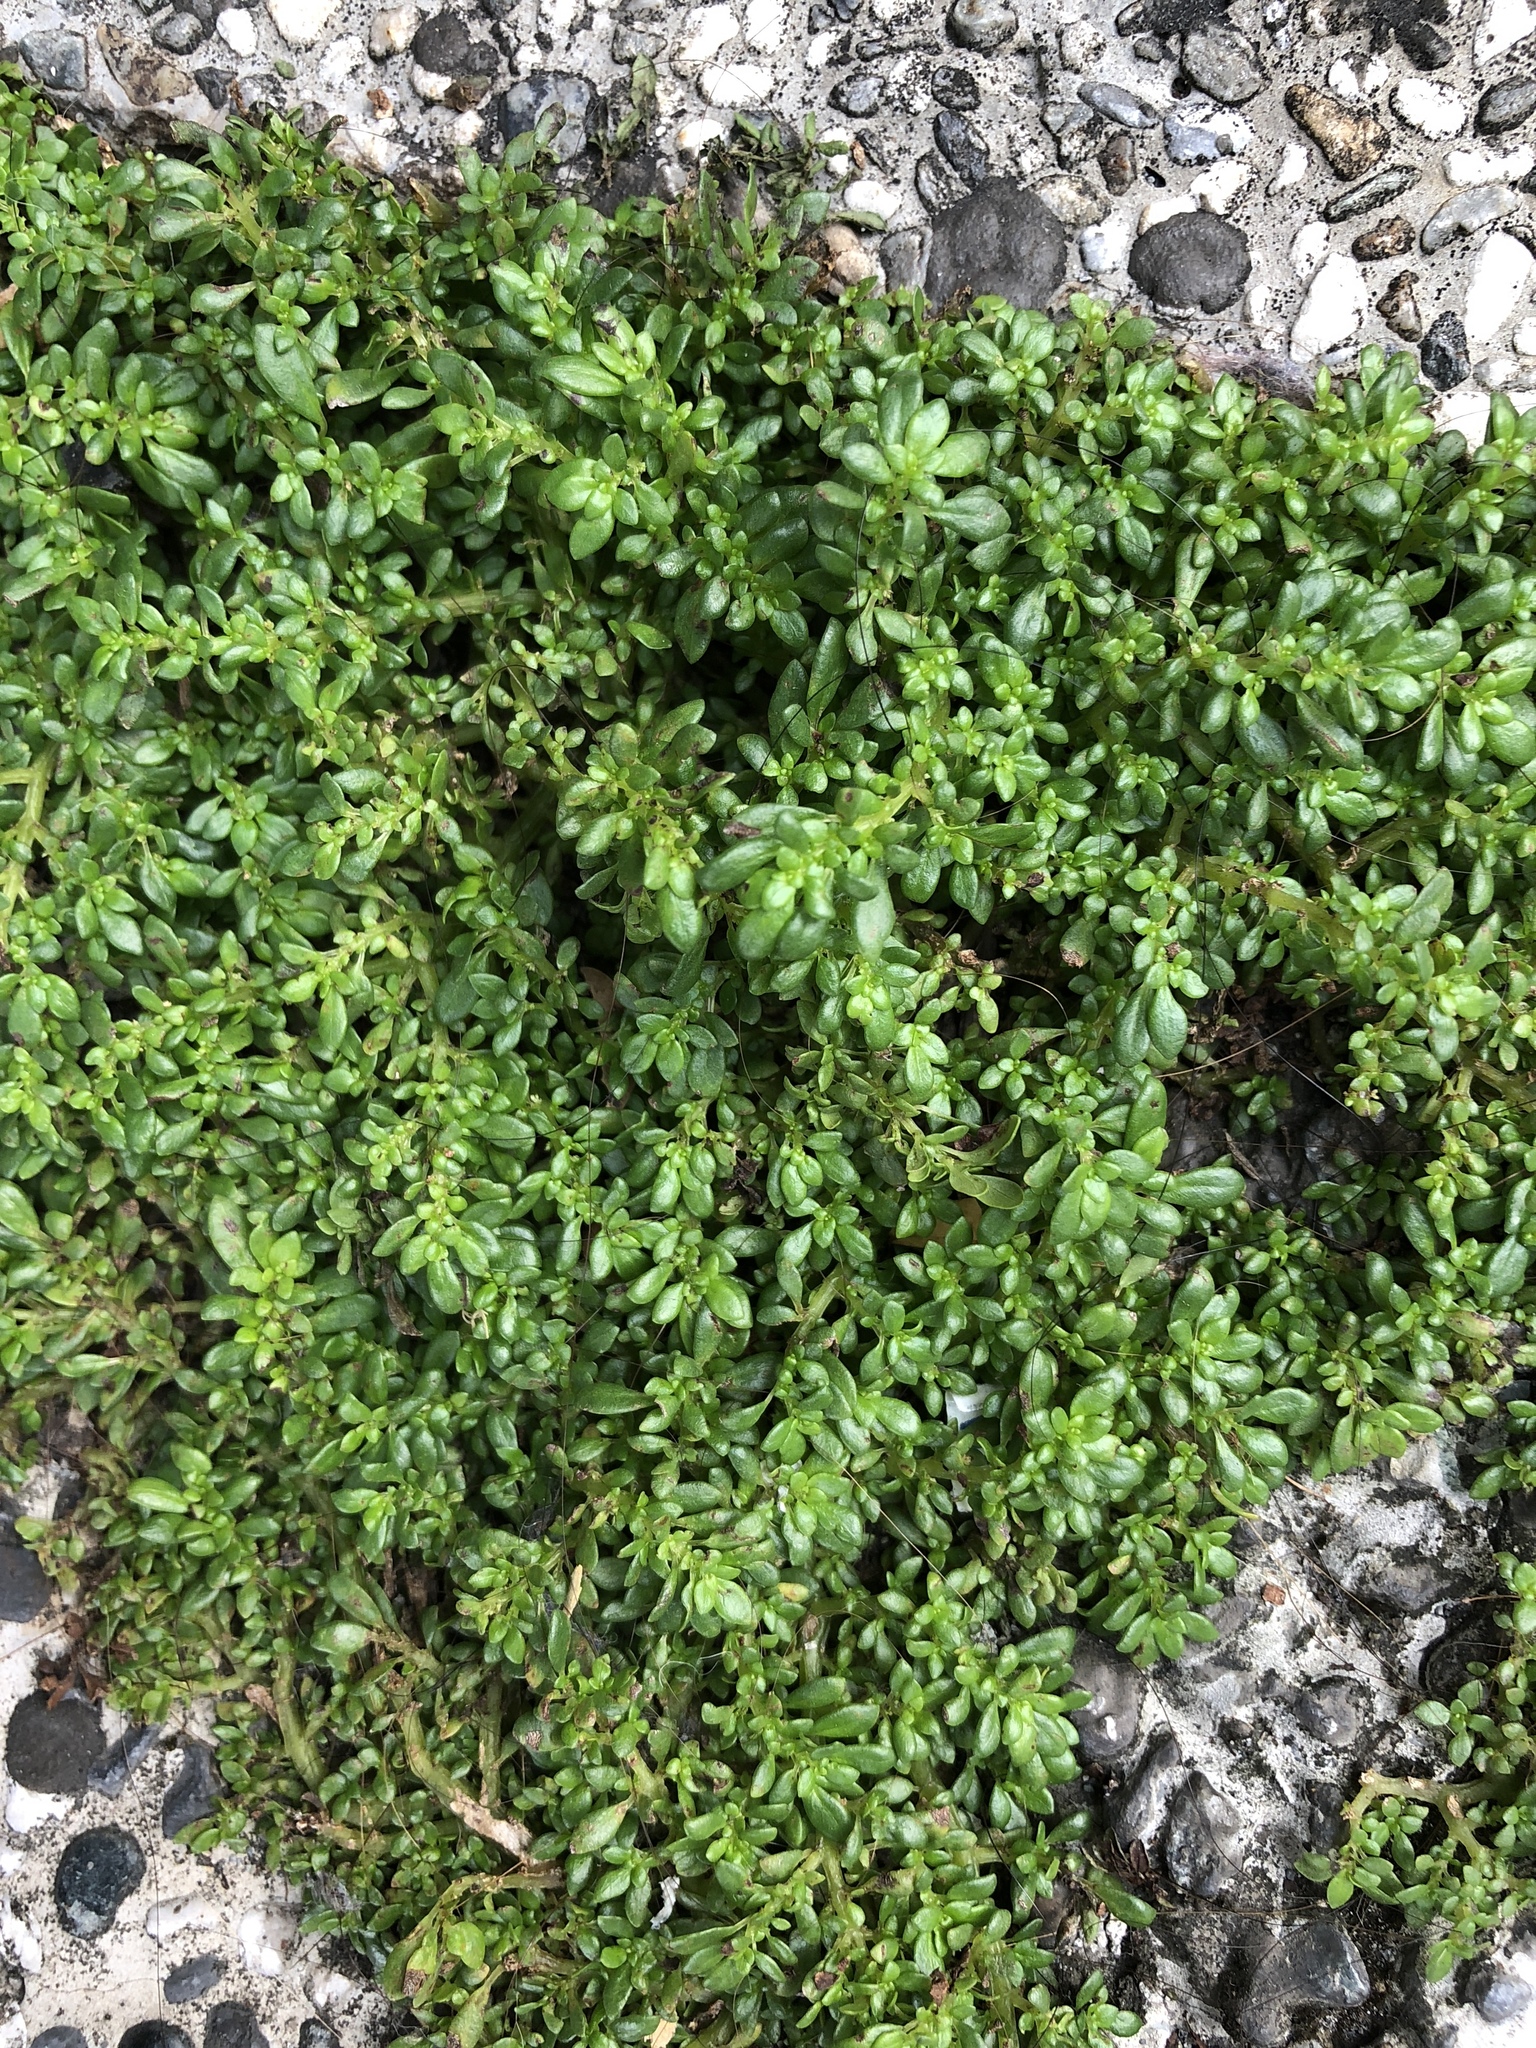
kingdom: Plantae
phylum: Tracheophyta
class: Magnoliopsida
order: Rosales
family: Urticaceae
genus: Pilea
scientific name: Pilea microphylla
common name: Artillery-plant
